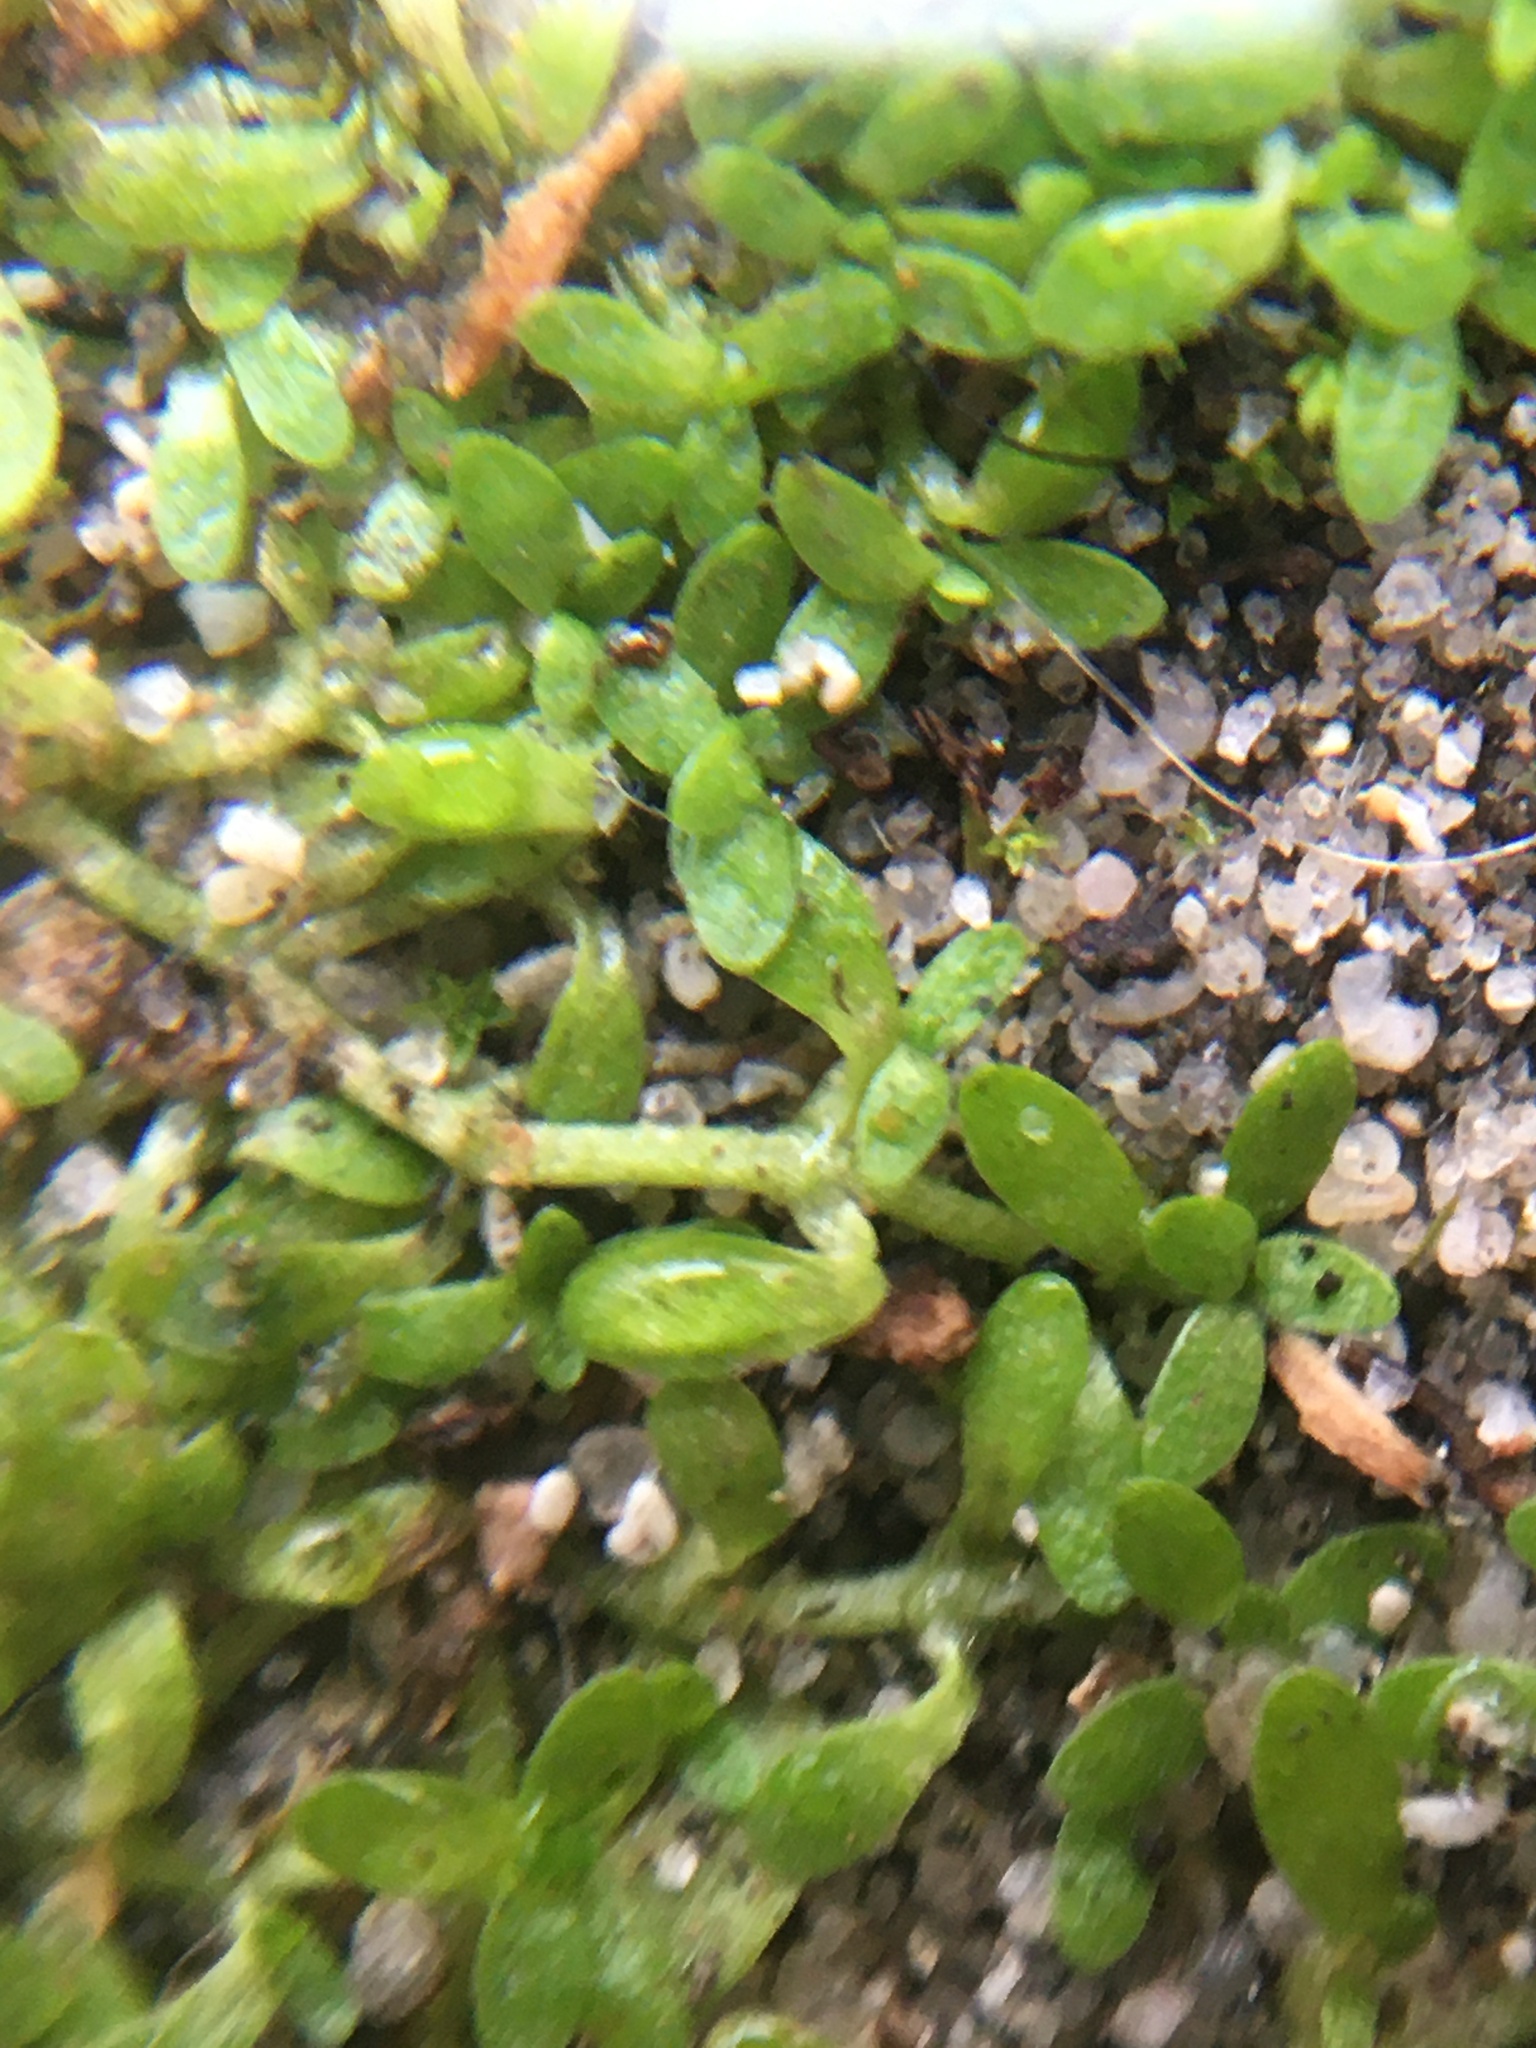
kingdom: Plantae
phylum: Tracheophyta
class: Magnoliopsida
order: Lamiales
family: Plantaginaceae
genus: Callitriche
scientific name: Callitriche deflexa
